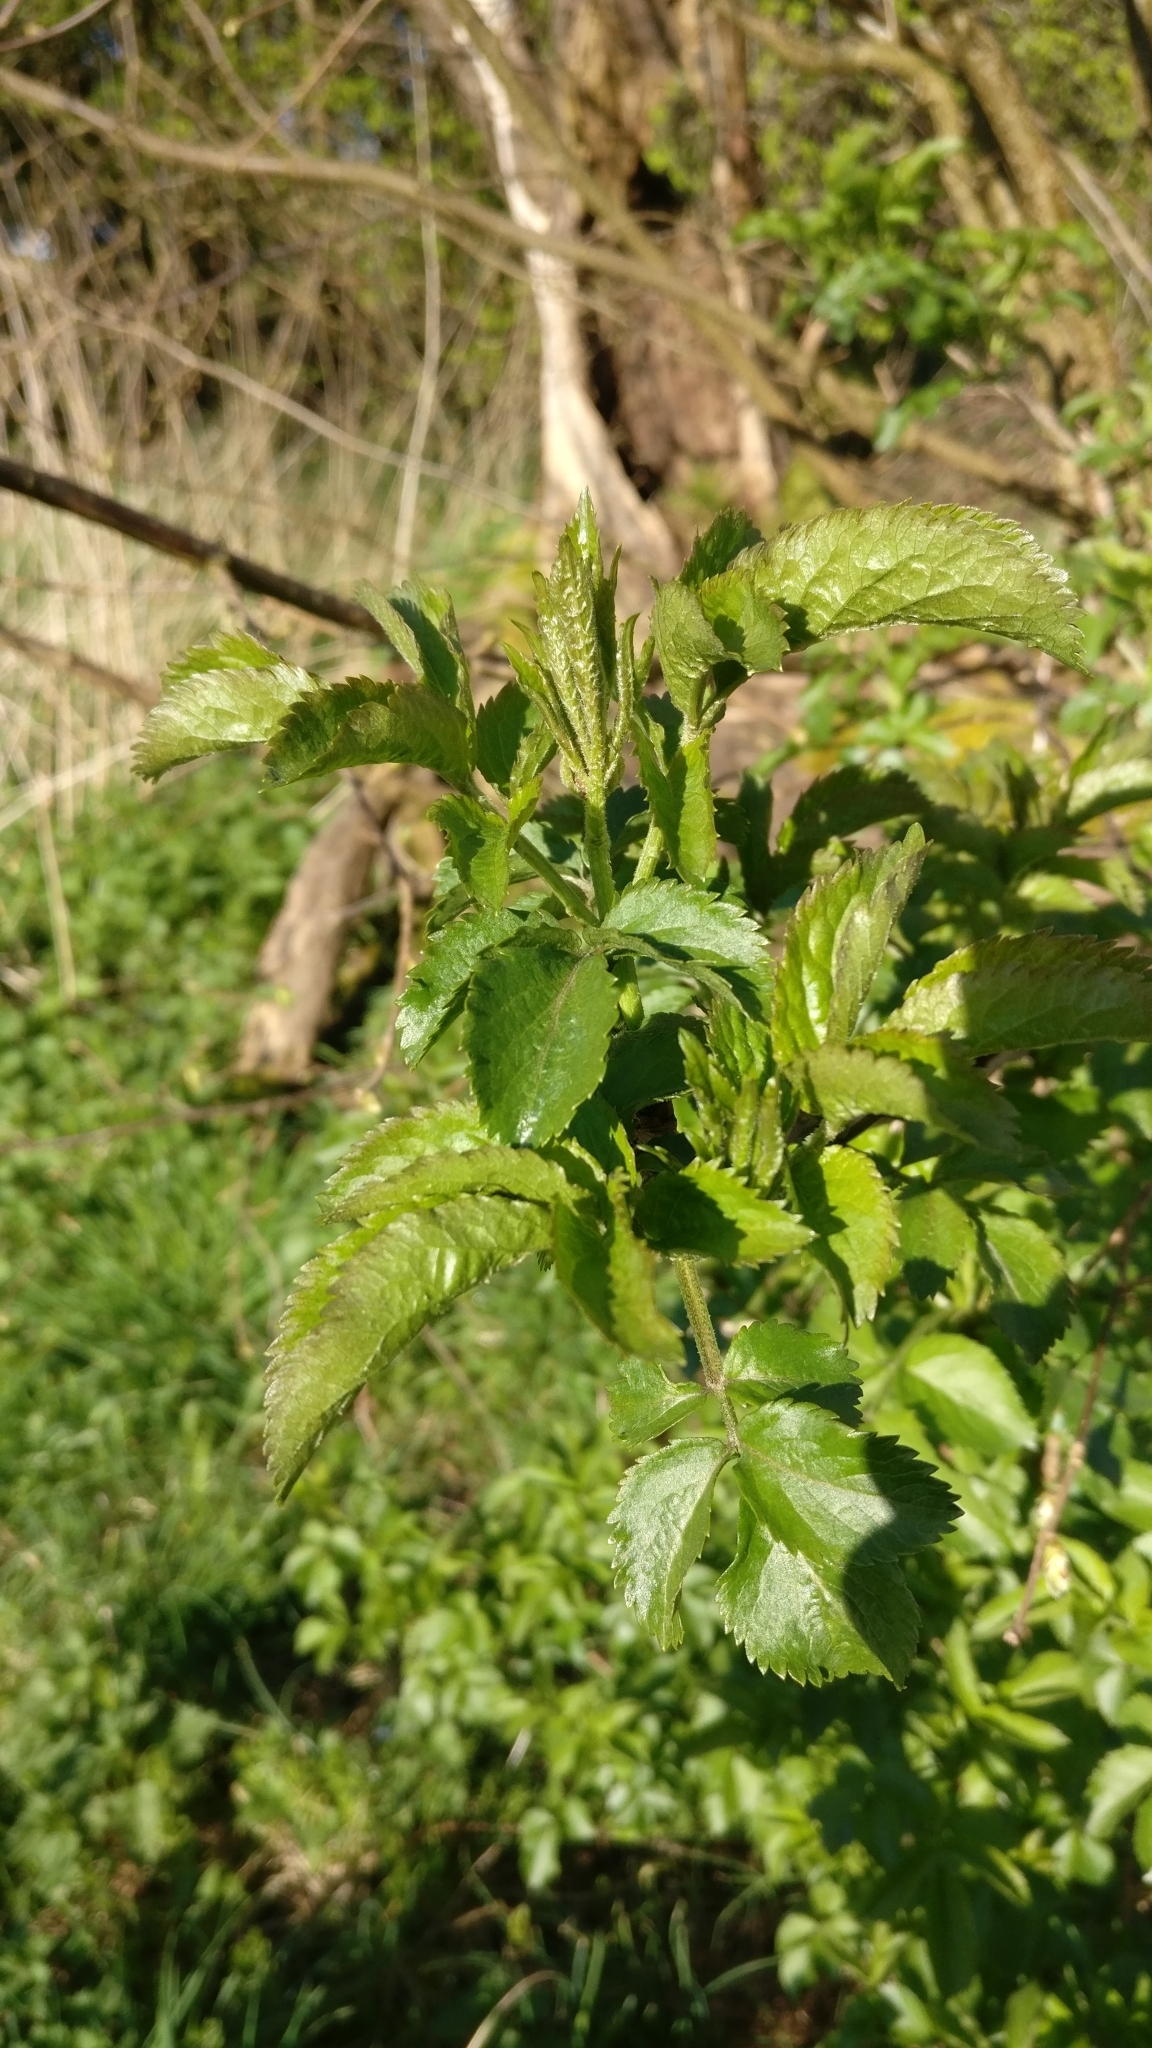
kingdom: Plantae
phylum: Tracheophyta
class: Magnoliopsida
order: Dipsacales
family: Viburnaceae
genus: Sambucus
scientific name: Sambucus nigra
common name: Elder
